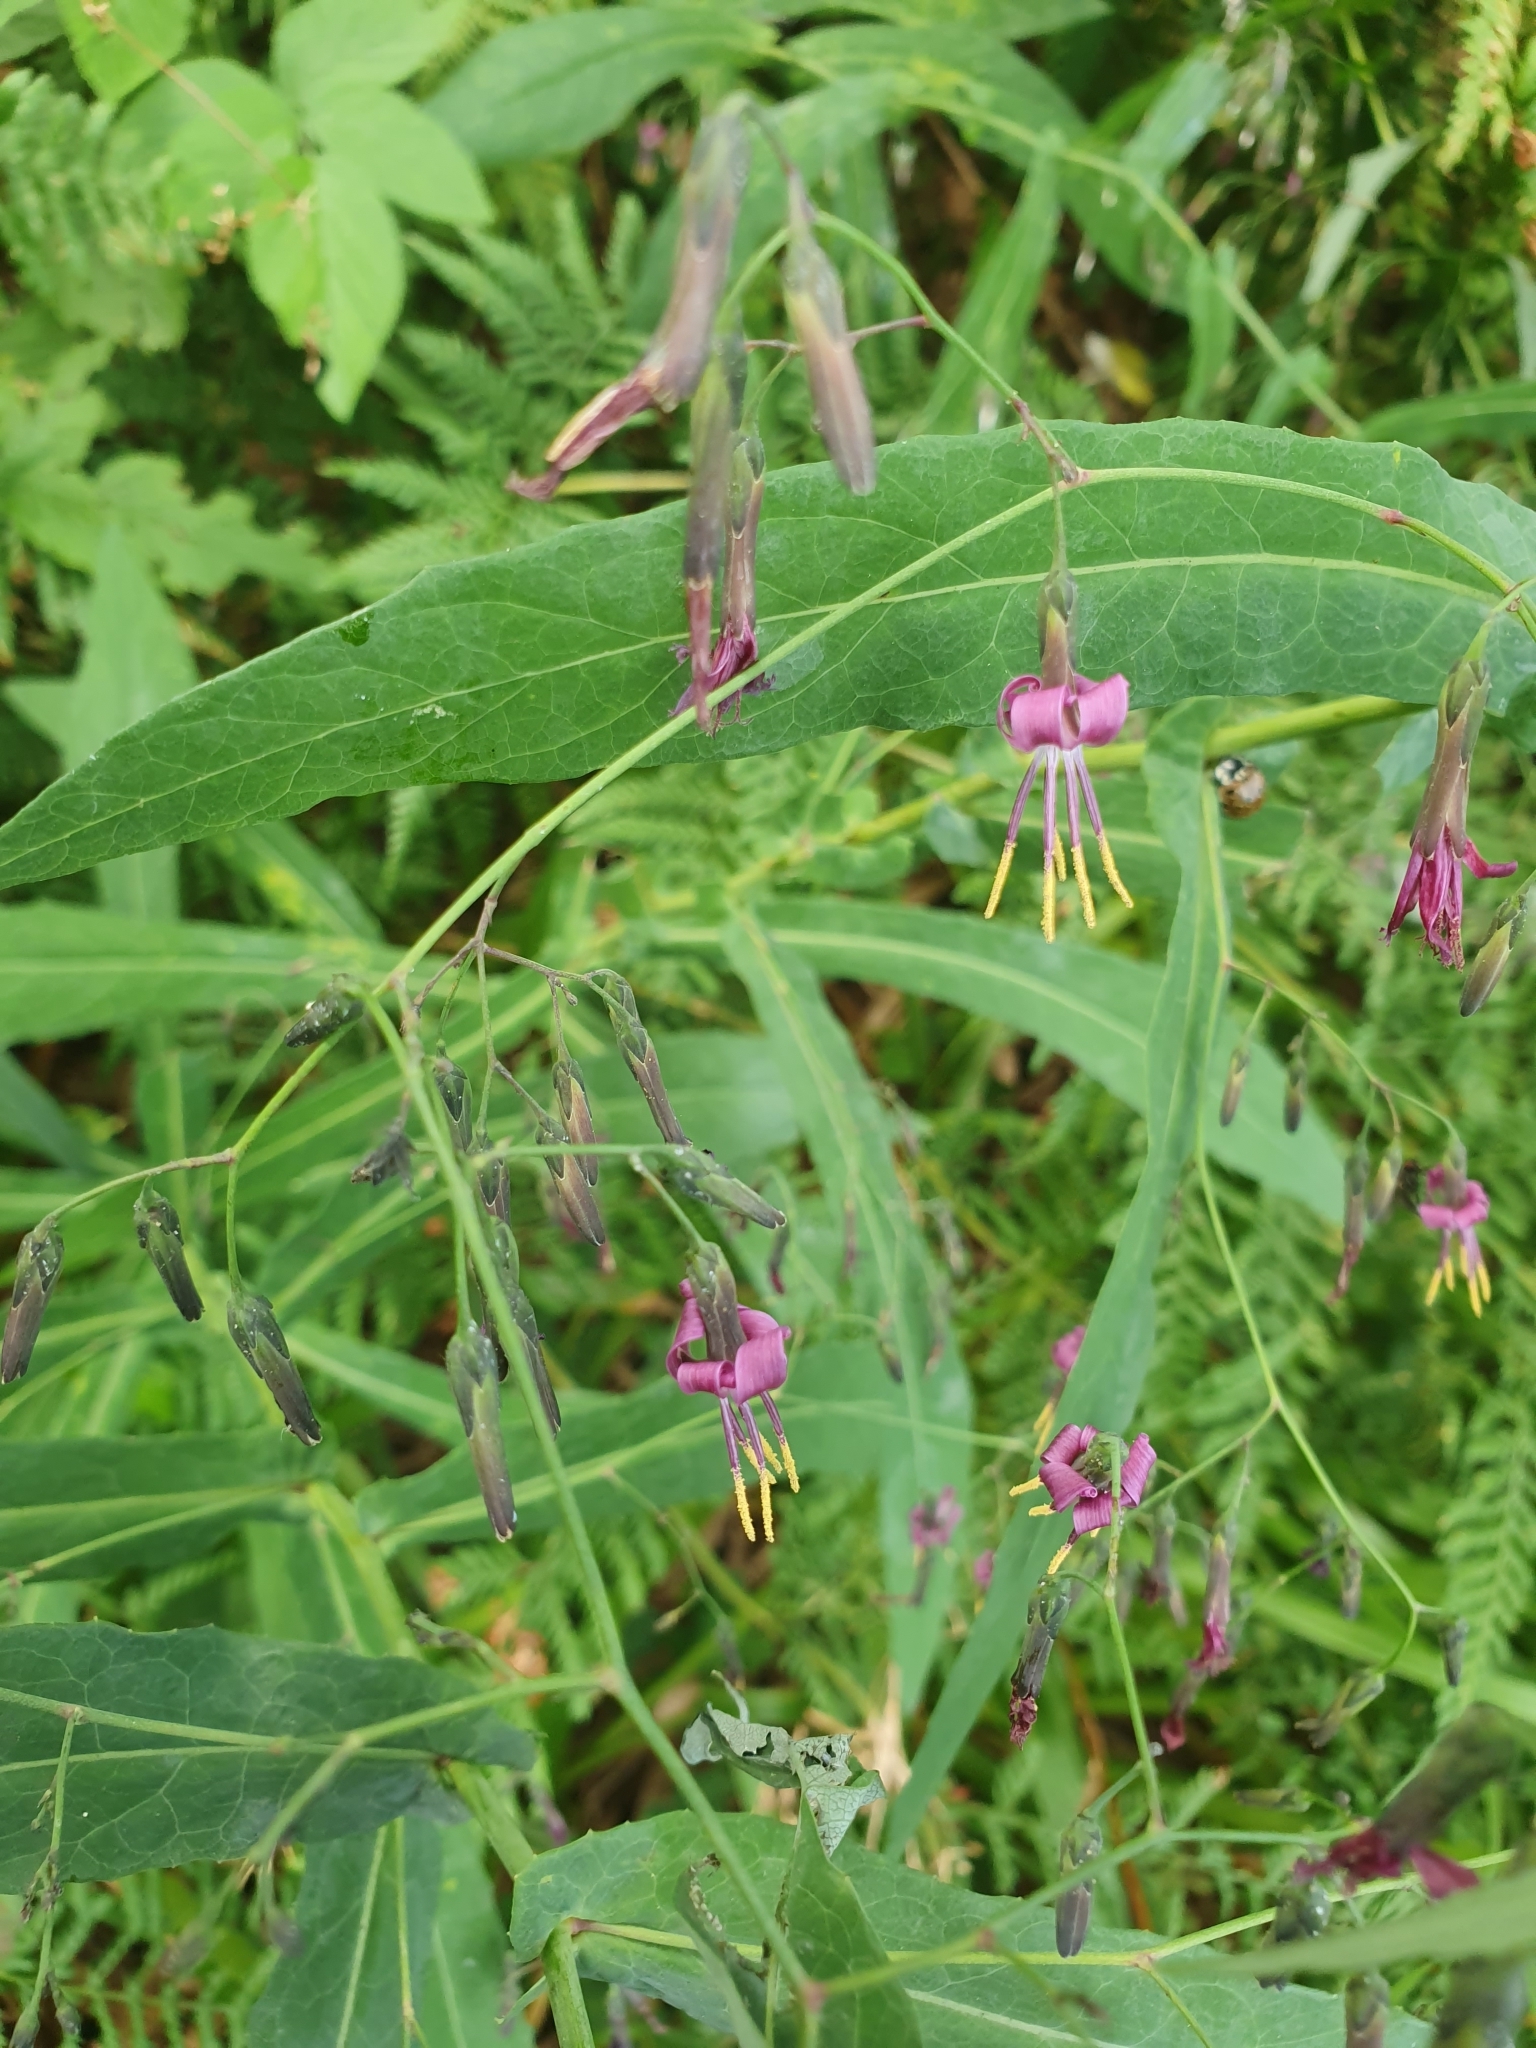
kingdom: Plantae
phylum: Tracheophyta
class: Magnoliopsida
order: Asterales
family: Asteraceae
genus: Prenanthes
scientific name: Prenanthes purpurea
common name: Purple lettuce
